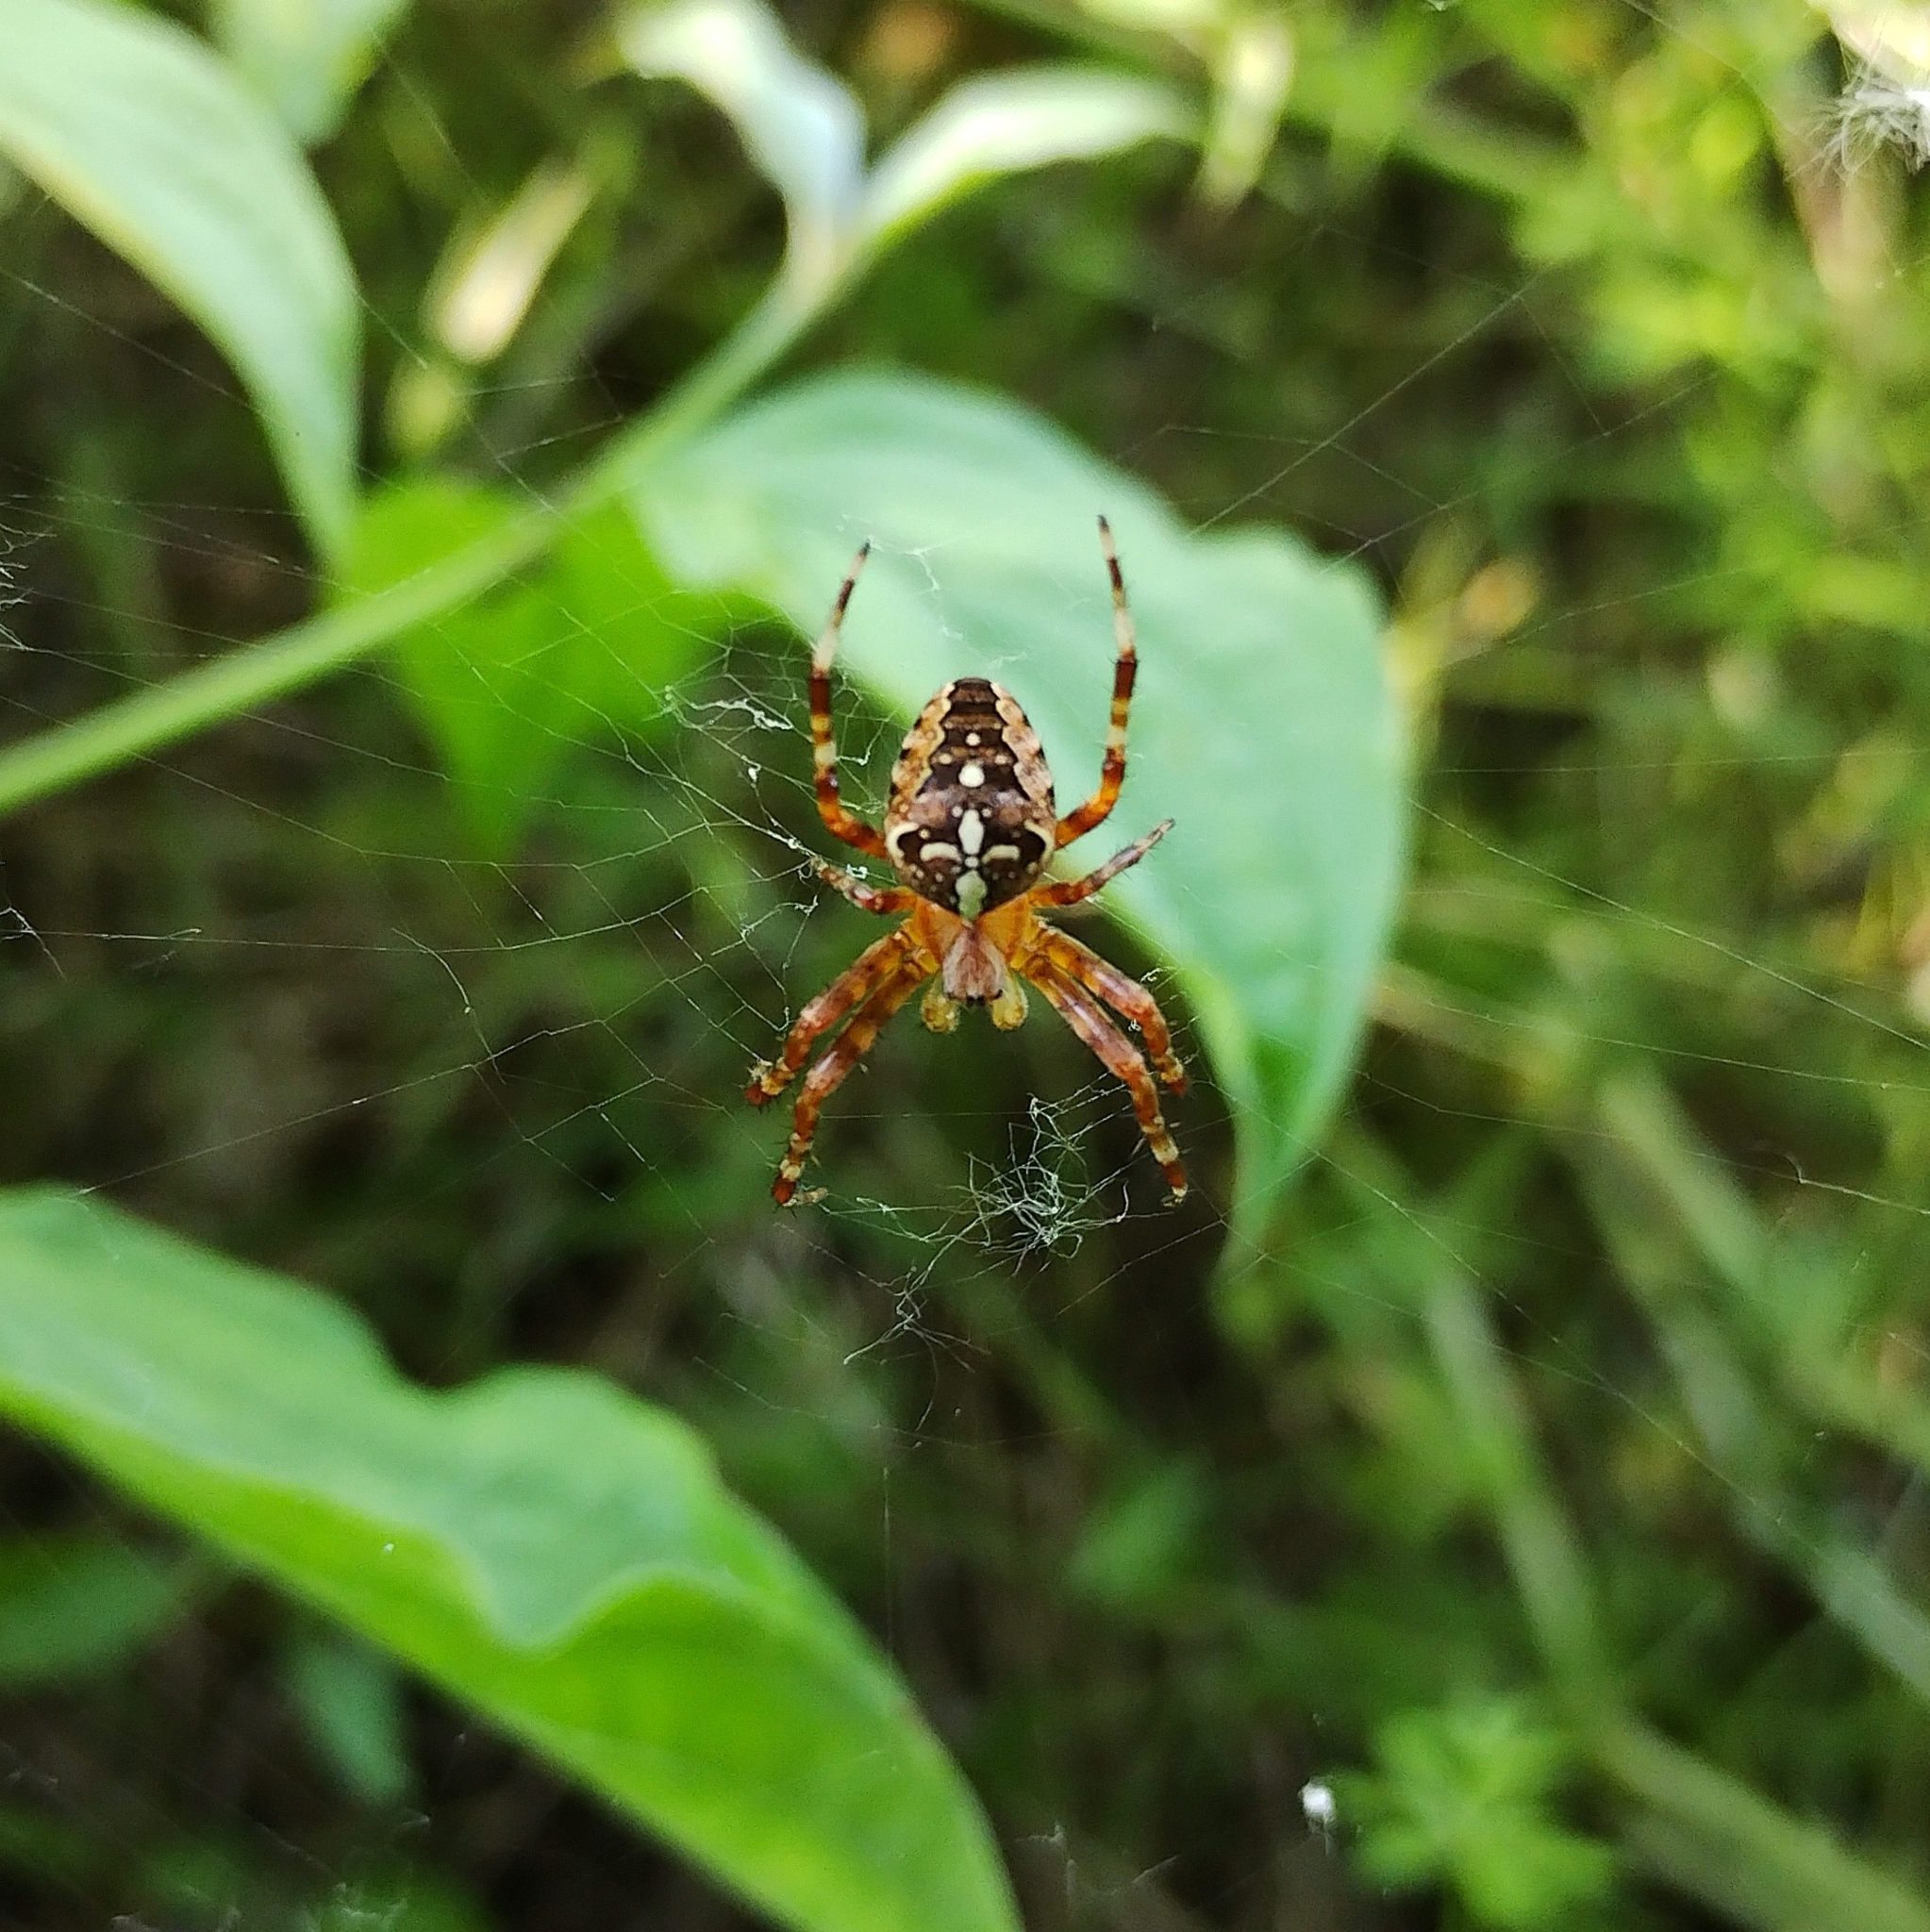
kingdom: Animalia
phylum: Arthropoda
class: Arachnida
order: Araneae
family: Araneidae
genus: Araneus
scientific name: Araneus diadematus
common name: Cross orbweaver
